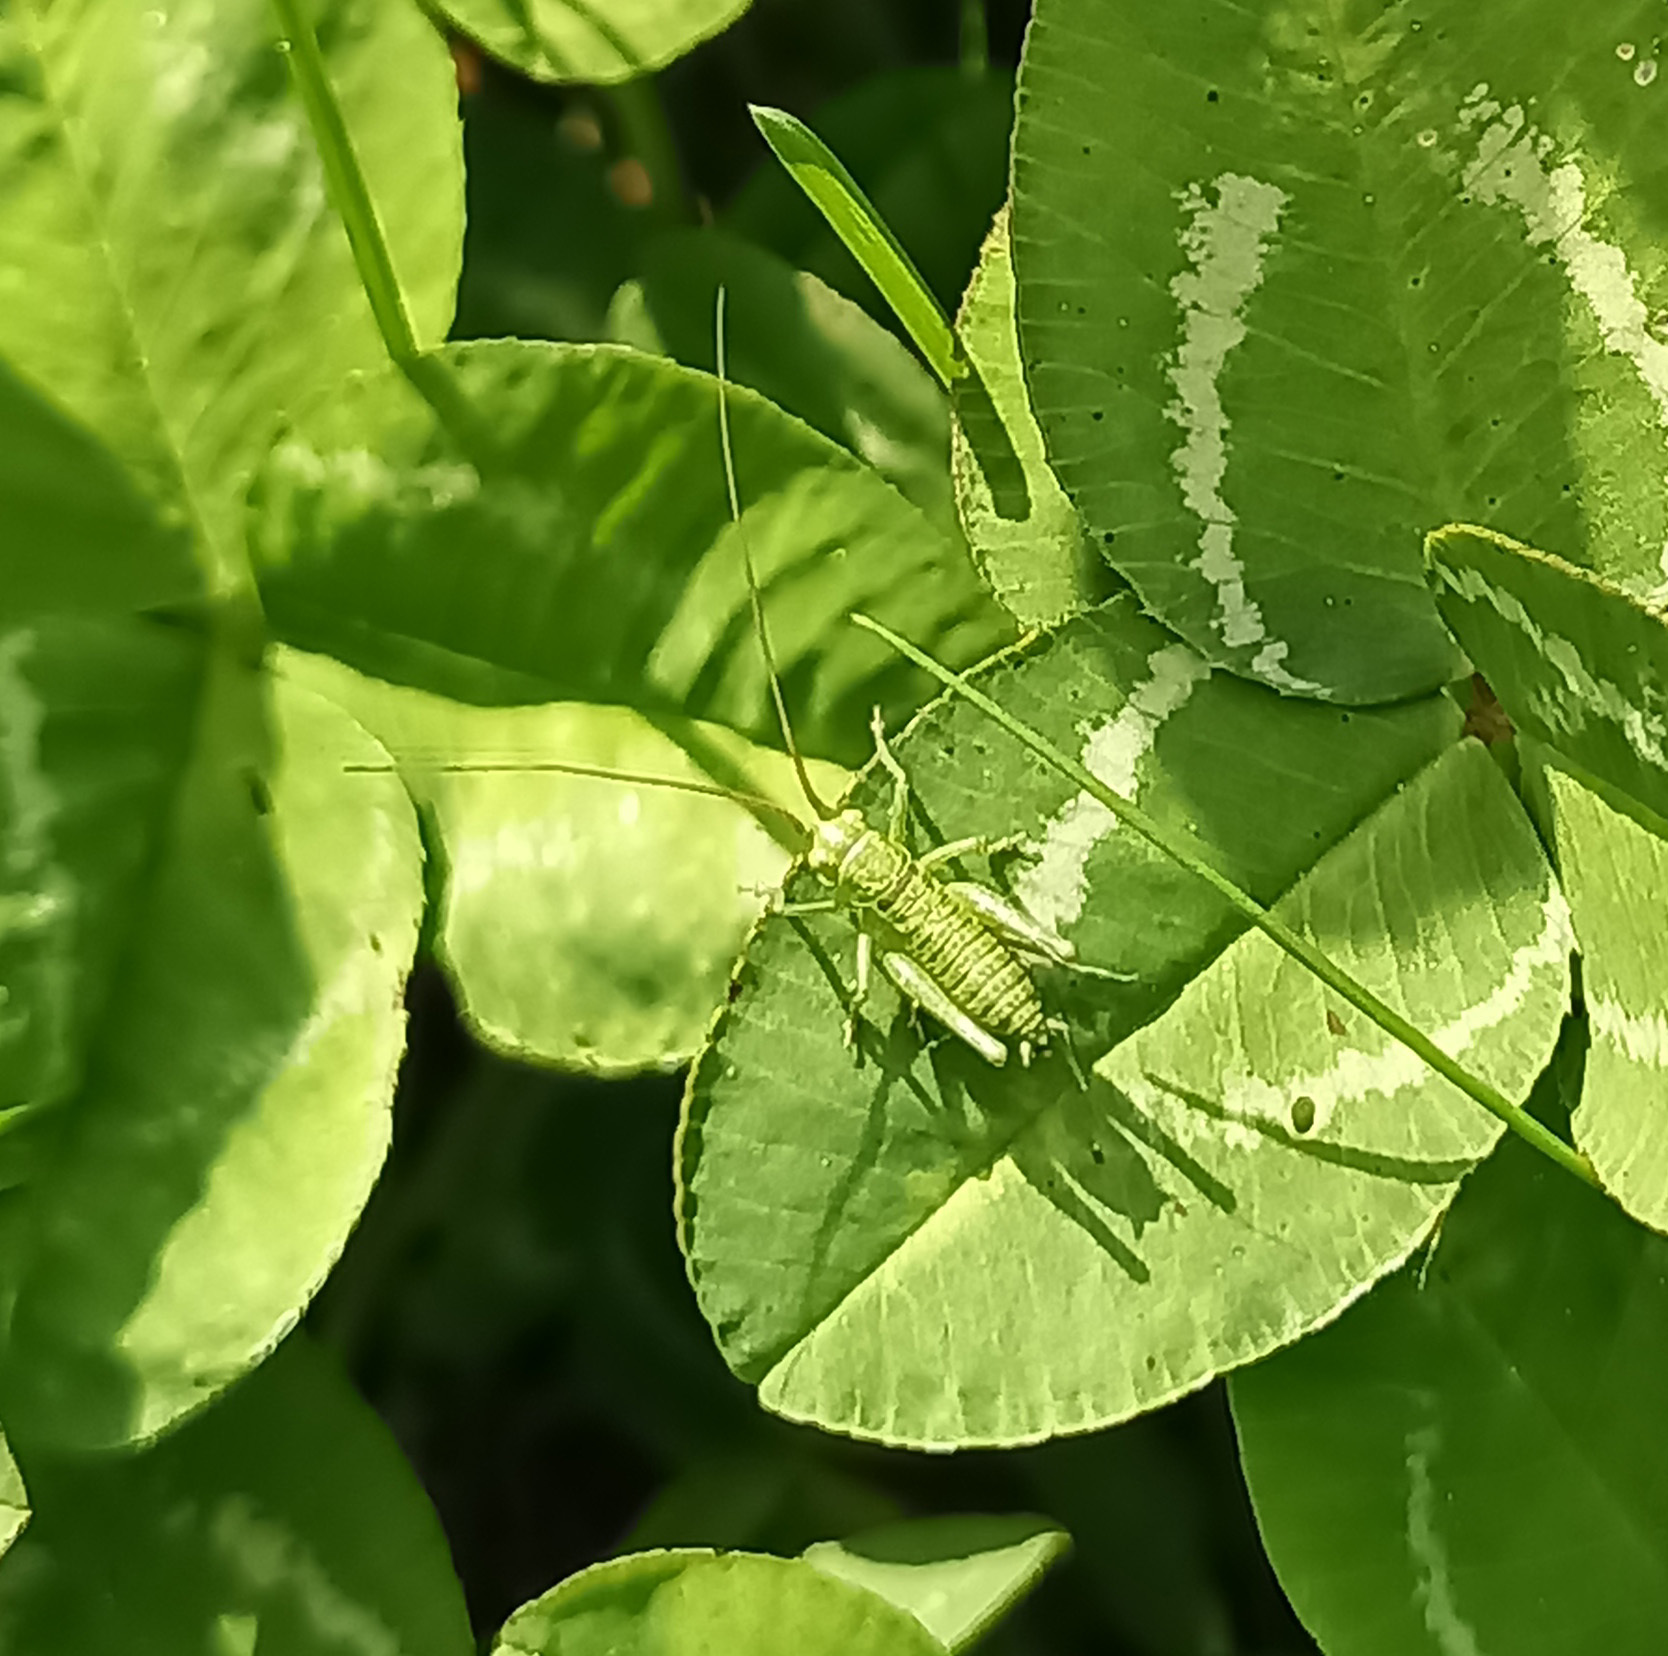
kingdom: Animalia
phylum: Arthropoda
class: Insecta
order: Orthoptera
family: Tettigoniidae
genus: Tettigonia
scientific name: Tettigonia viridissima
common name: Great green bush-cricket
